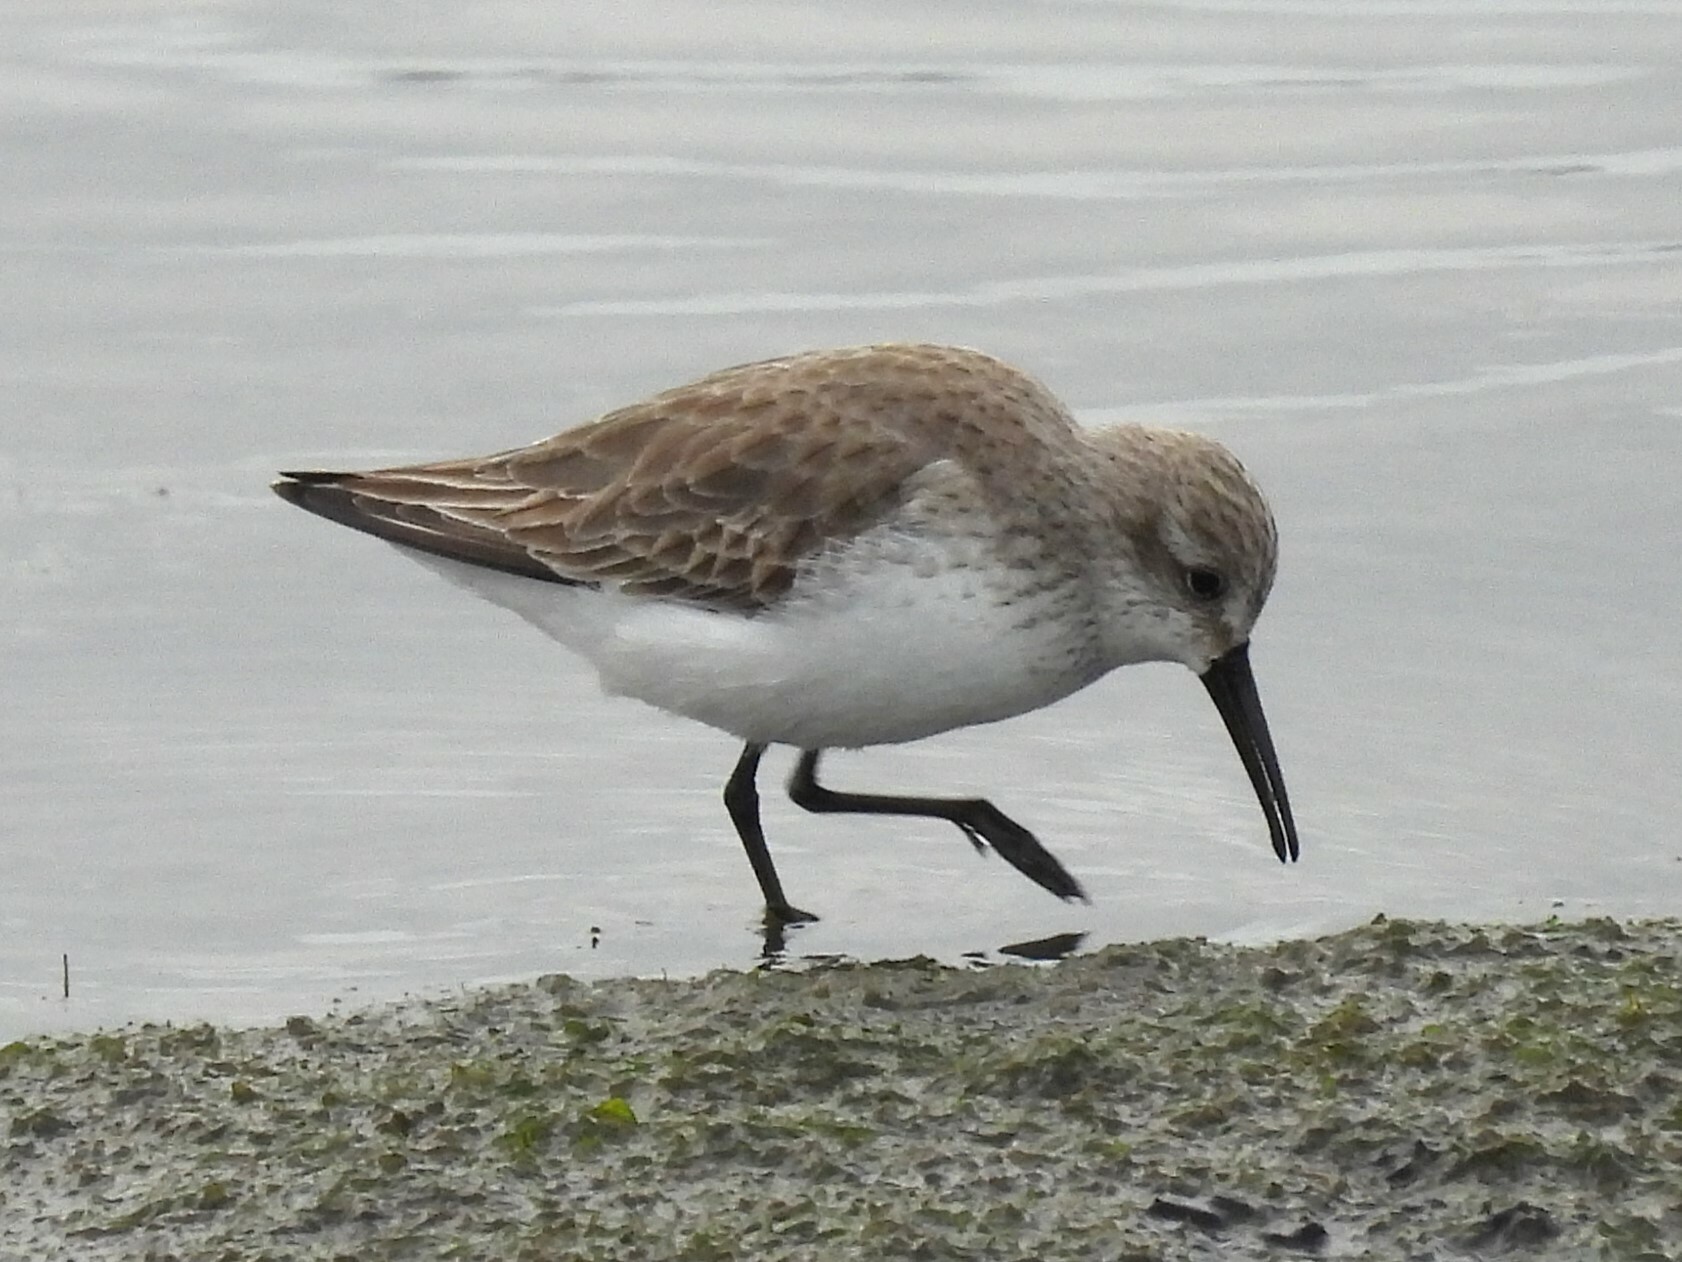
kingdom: Animalia
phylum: Chordata
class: Aves
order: Charadriiformes
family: Scolopacidae
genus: Calidris
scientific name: Calidris mauri
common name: Western sandpiper
